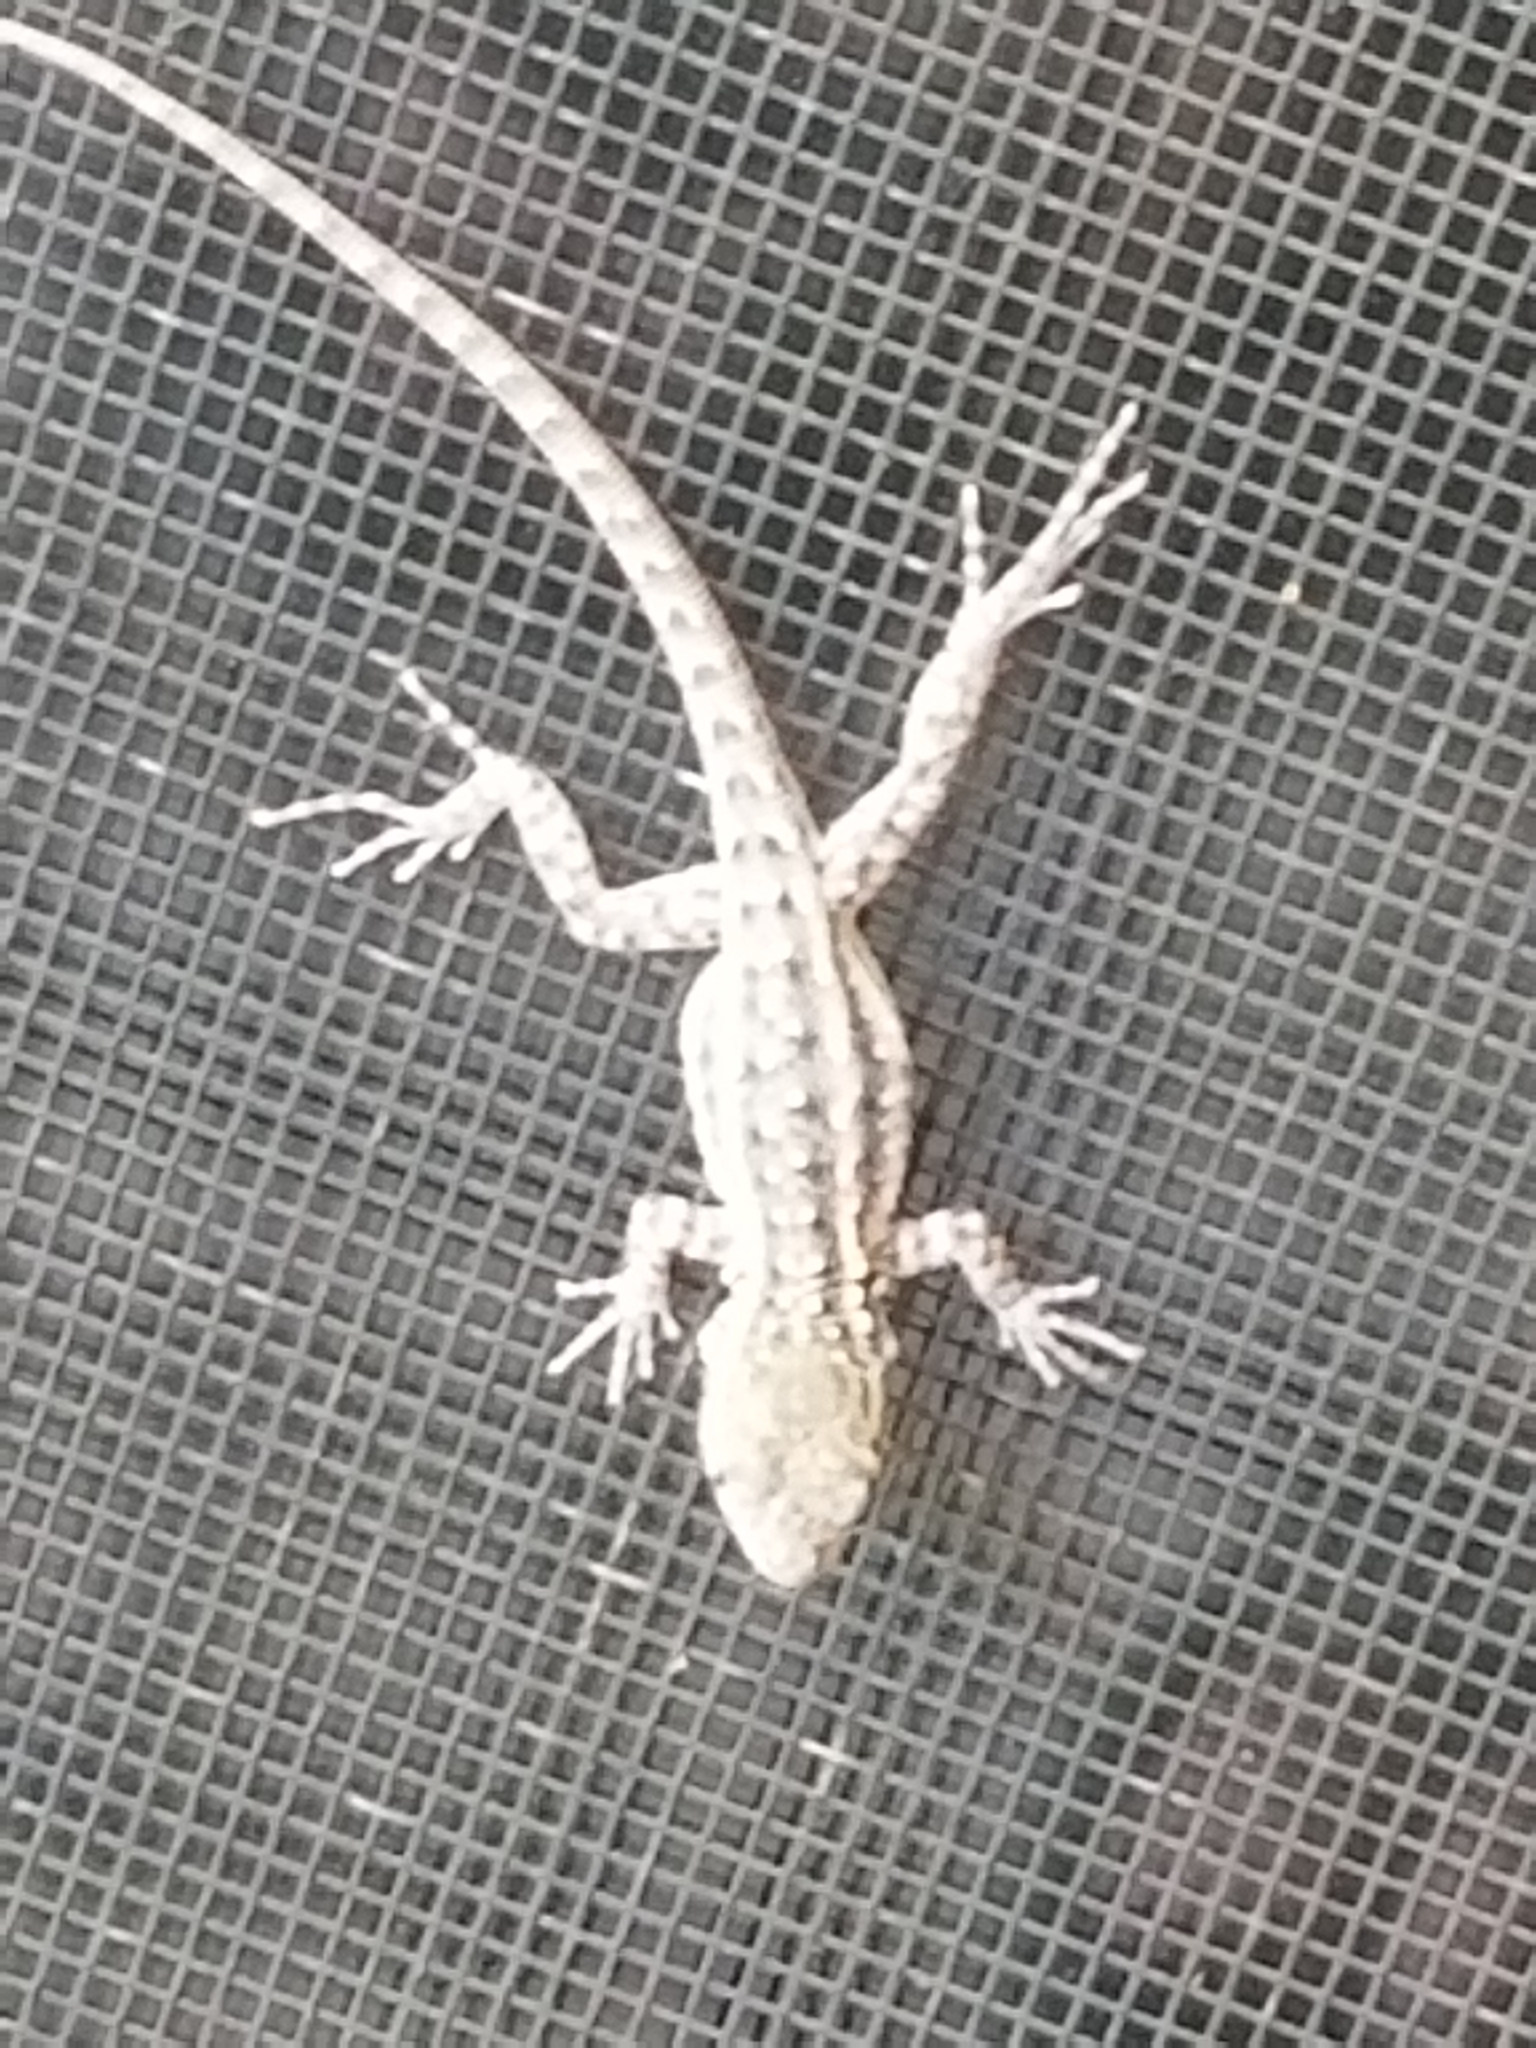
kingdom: Animalia
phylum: Chordata
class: Squamata
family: Phrynosomatidae
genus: Uta
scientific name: Uta stansburiana
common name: Side-blotched lizard
